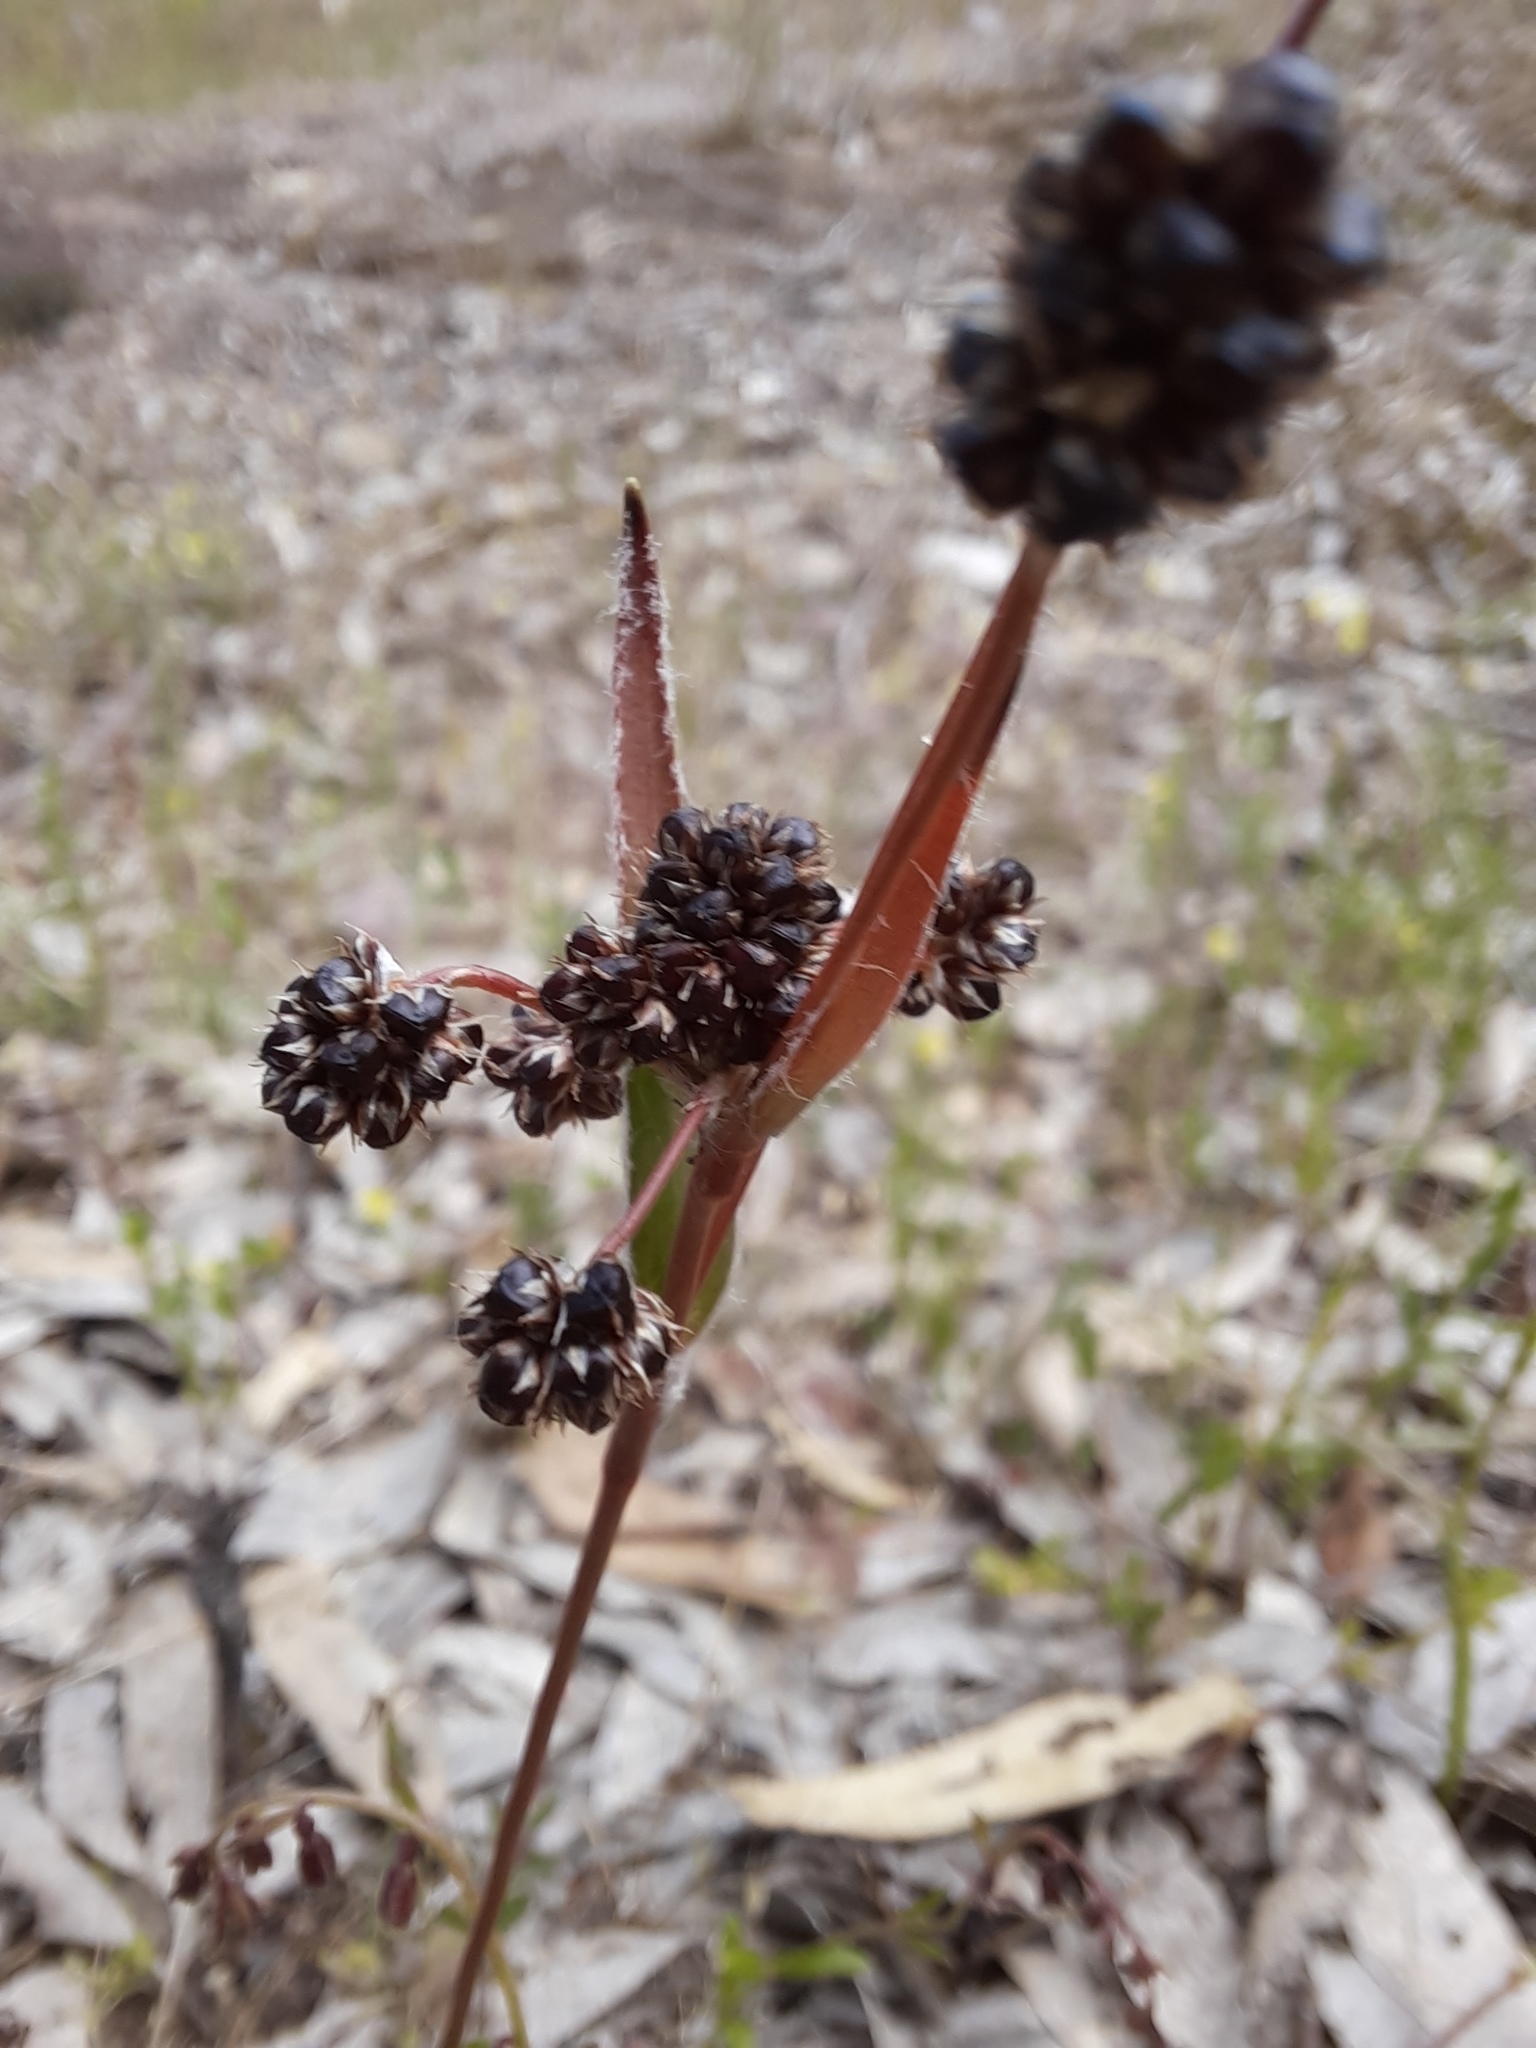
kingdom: Plantae
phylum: Tracheophyta
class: Liliopsida
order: Poales
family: Juncaceae
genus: Luzula
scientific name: Luzula meridionalis
